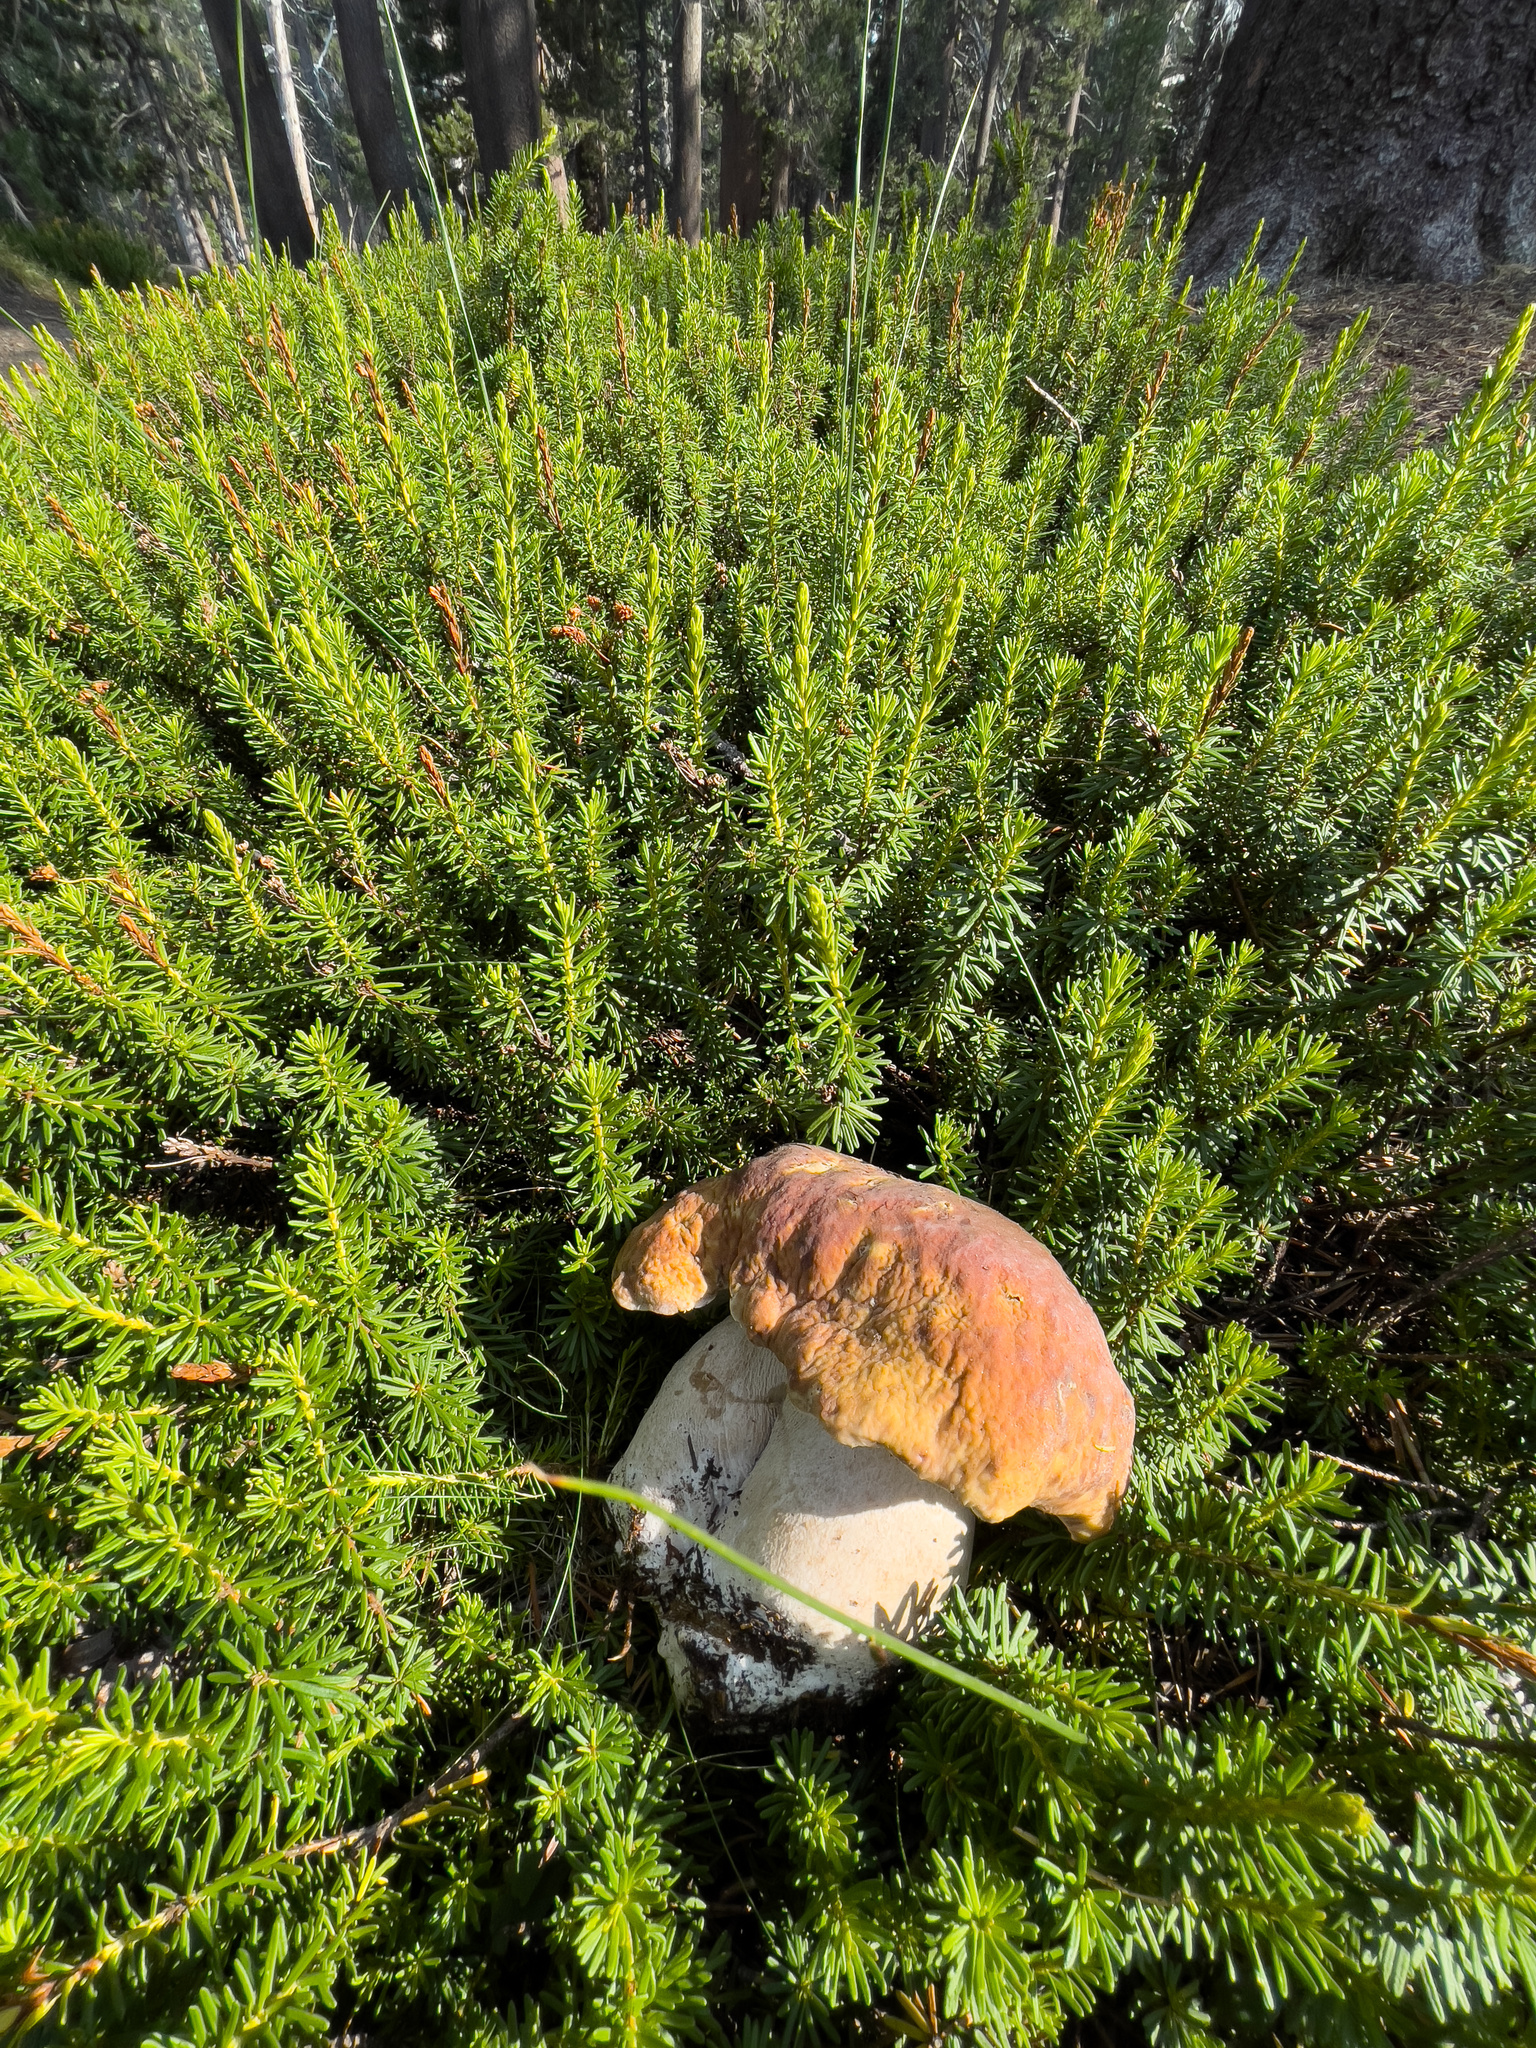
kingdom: Fungi
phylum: Basidiomycota
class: Agaricomycetes
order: Boletales
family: Boletaceae
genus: Boletus
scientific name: Boletus edulis
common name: Cep
